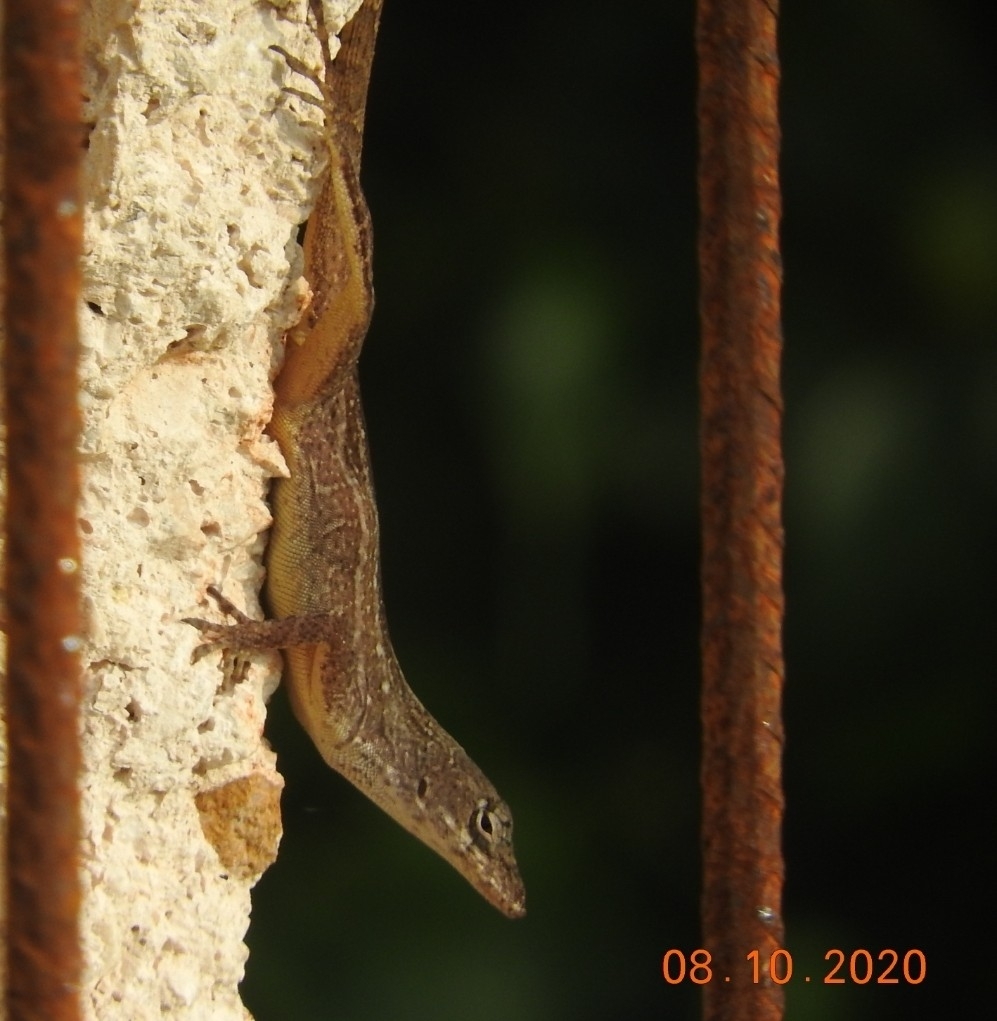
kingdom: Animalia
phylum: Chordata
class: Squamata
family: Dactyloidae
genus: Anolis
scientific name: Anolis sagrei
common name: Brown anole
